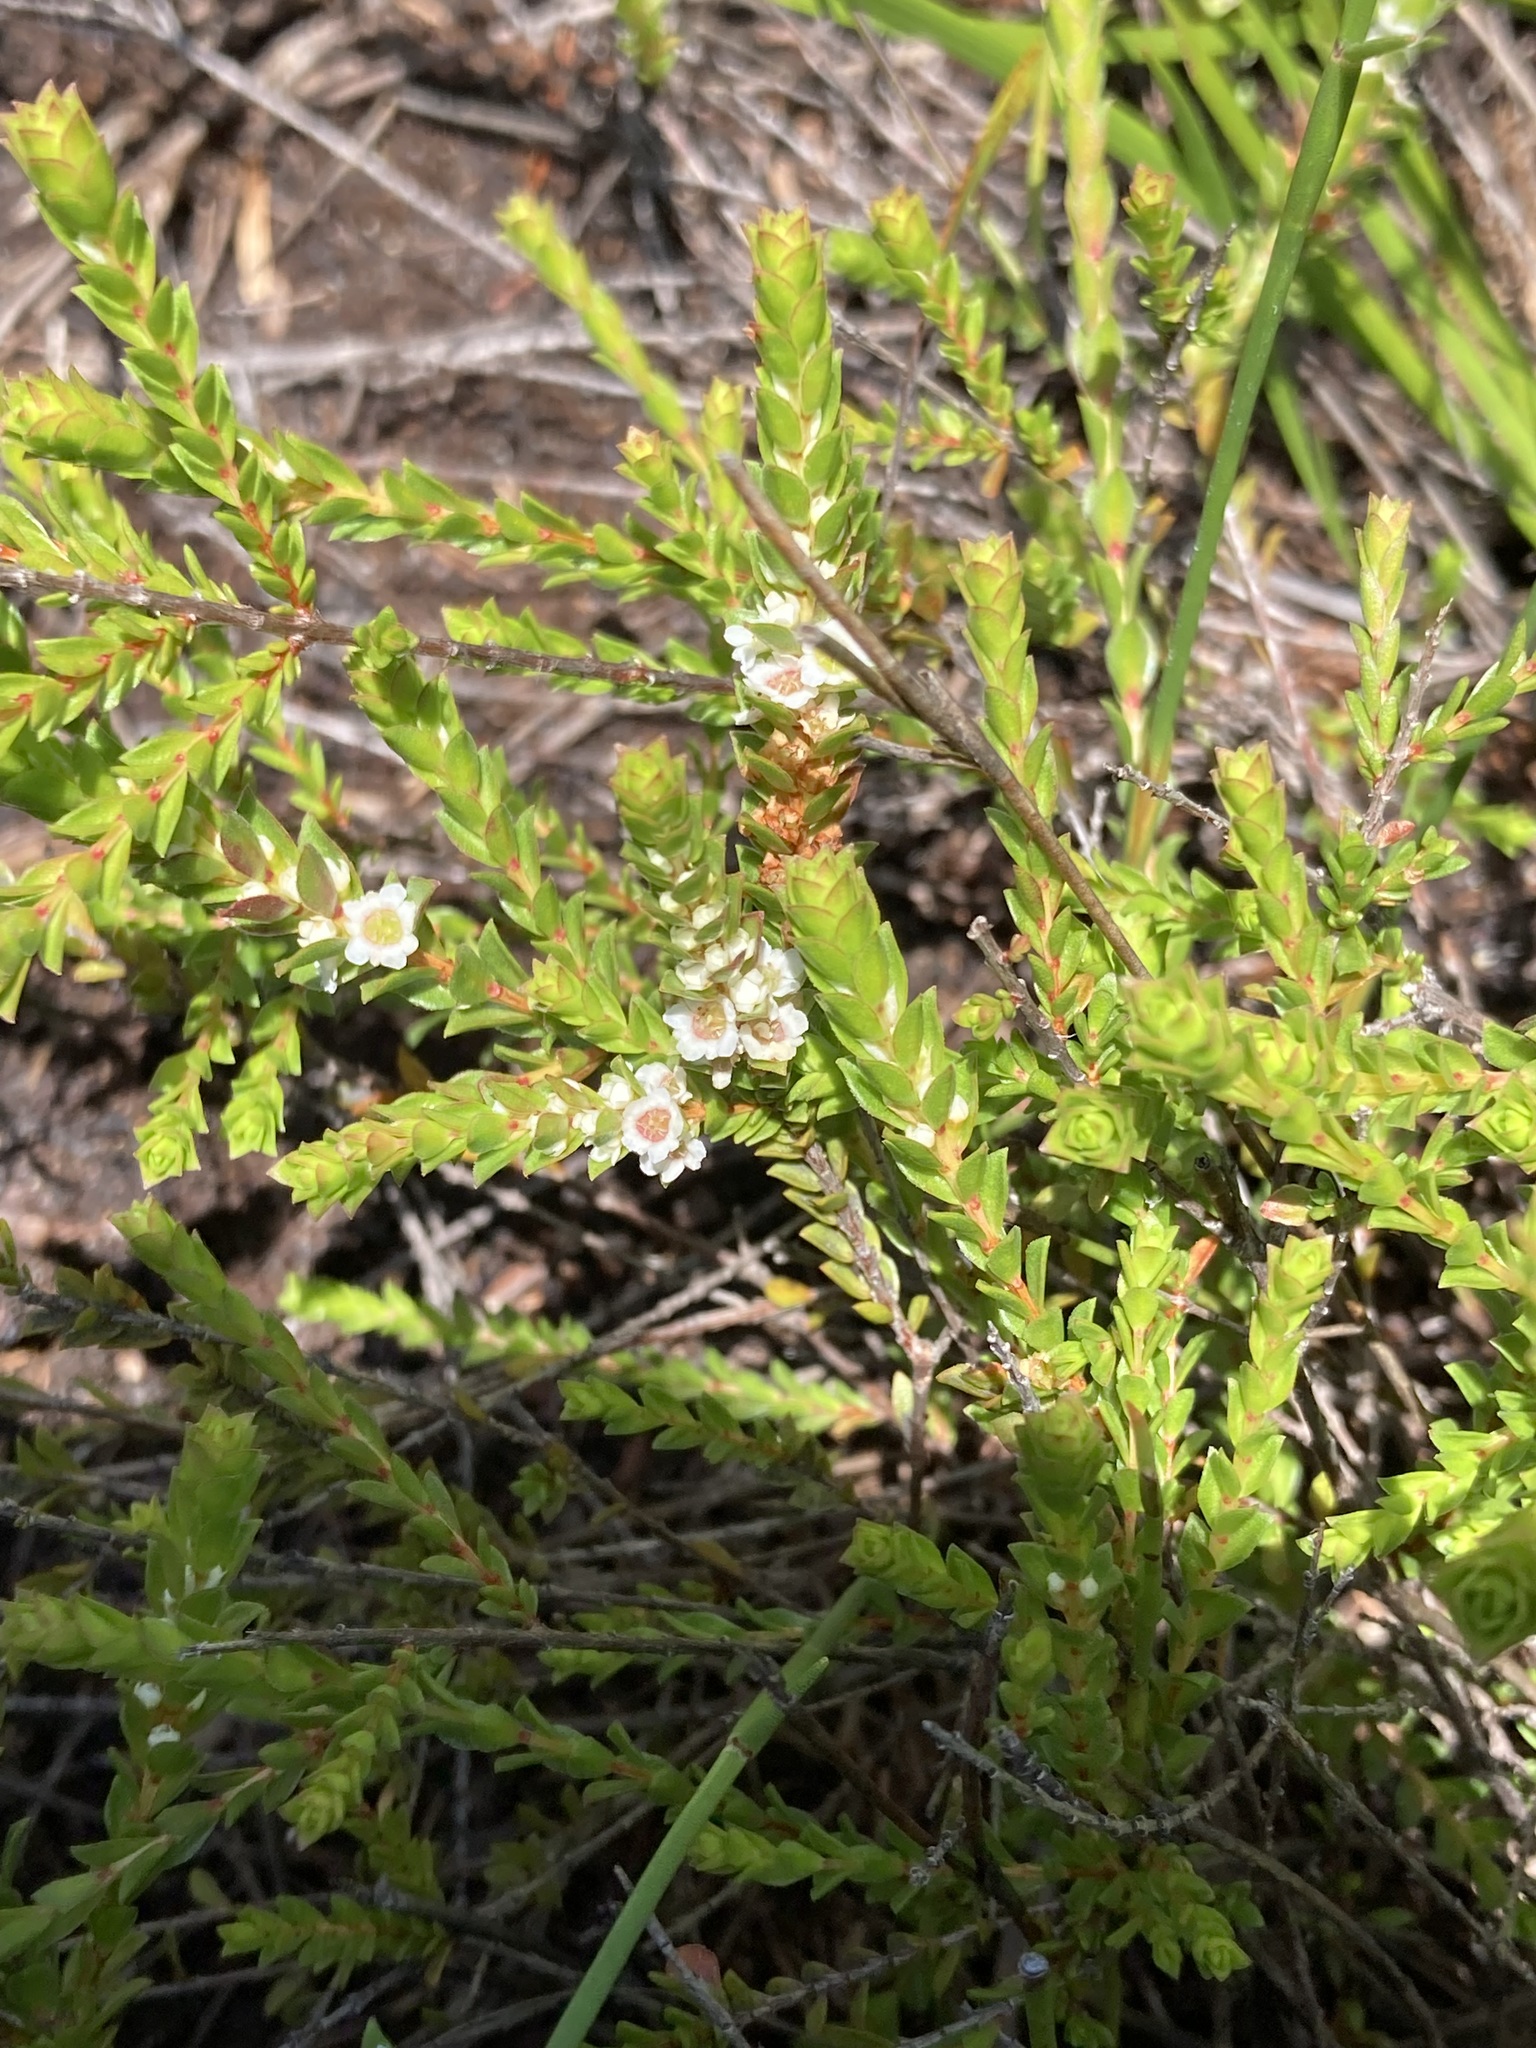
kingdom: Plantae
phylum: Tracheophyta
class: Magnoliopsida
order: Myrtales
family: Myrtaceae
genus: Baeckea
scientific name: Baeckea diosmifolia
